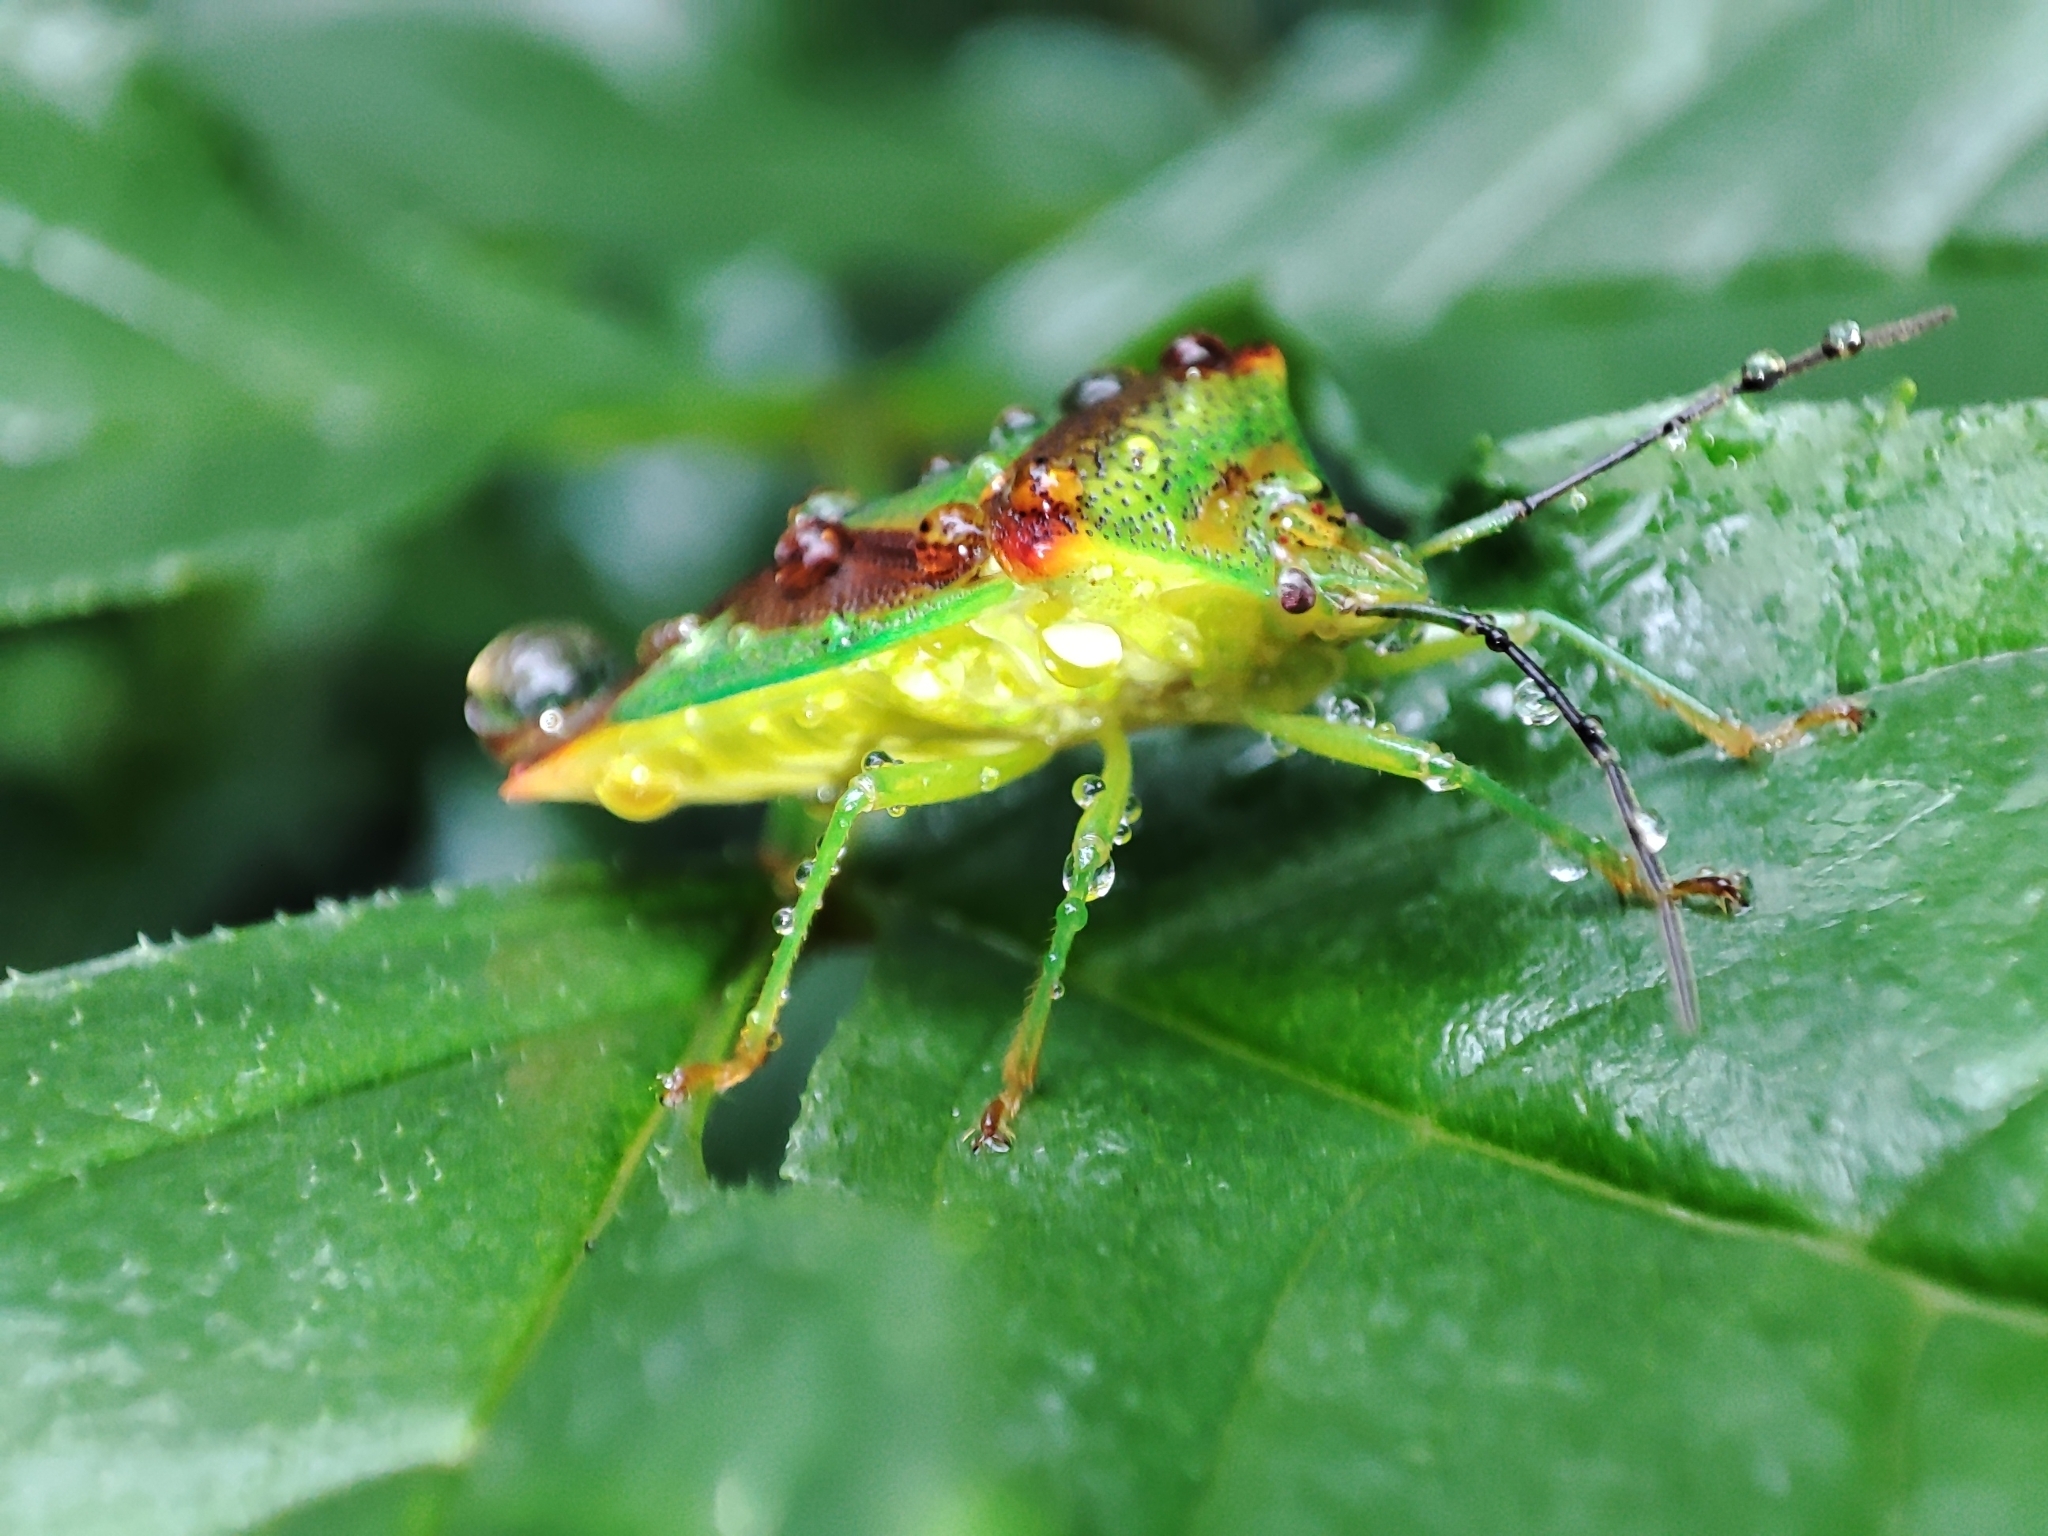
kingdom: Animalia
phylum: Arthropoda
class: Insecta
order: Hemiptera
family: Acanthosomatidae
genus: Acanthosoma
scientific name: Acanthosoma haemorrhoidale
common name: Hawthorn shieldbug
